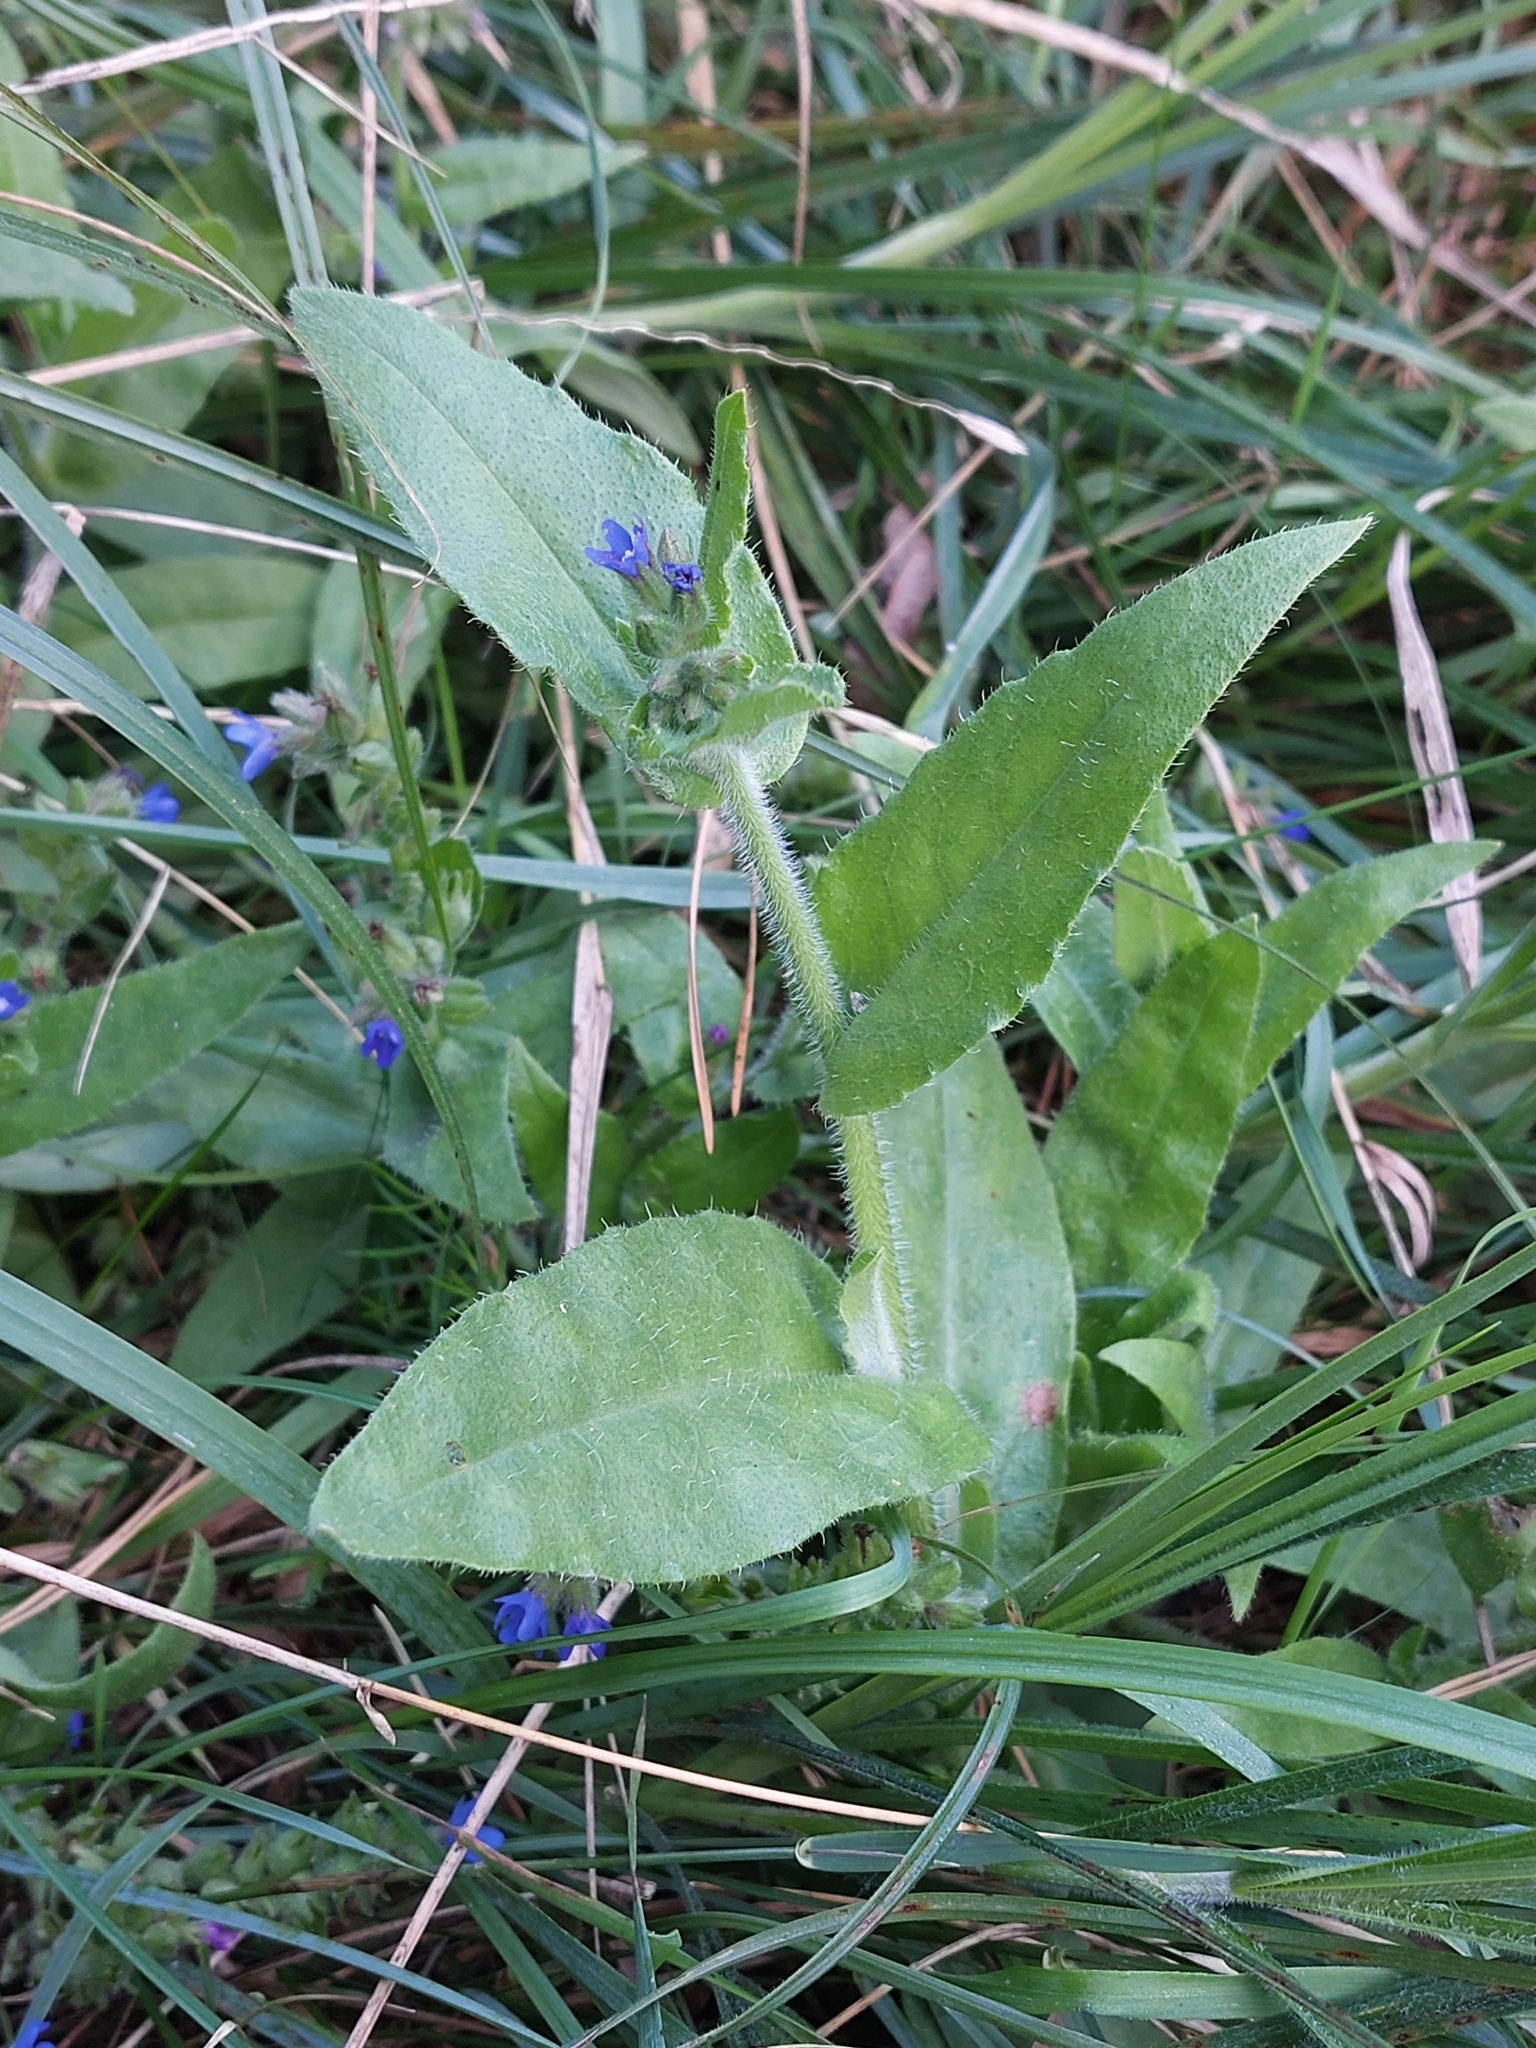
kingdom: Plantae
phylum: Tracheophyta
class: Magnoliopsida
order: Boraginales
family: Boraginaceae
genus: Anchusa
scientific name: Anchusa officinalis
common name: Alkanet
